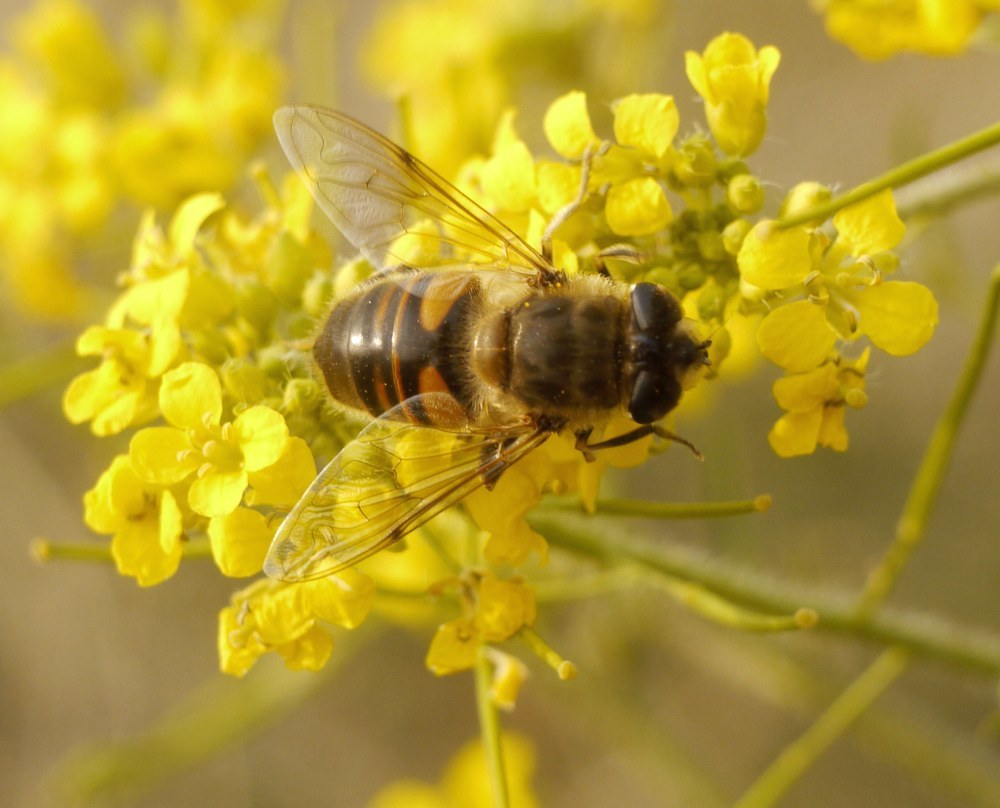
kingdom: Animalia
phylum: Arthropoda
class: Insecta
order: Diptera
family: Syrphidae
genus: Eristalis
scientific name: Eristalis tenax
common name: Drone fly
